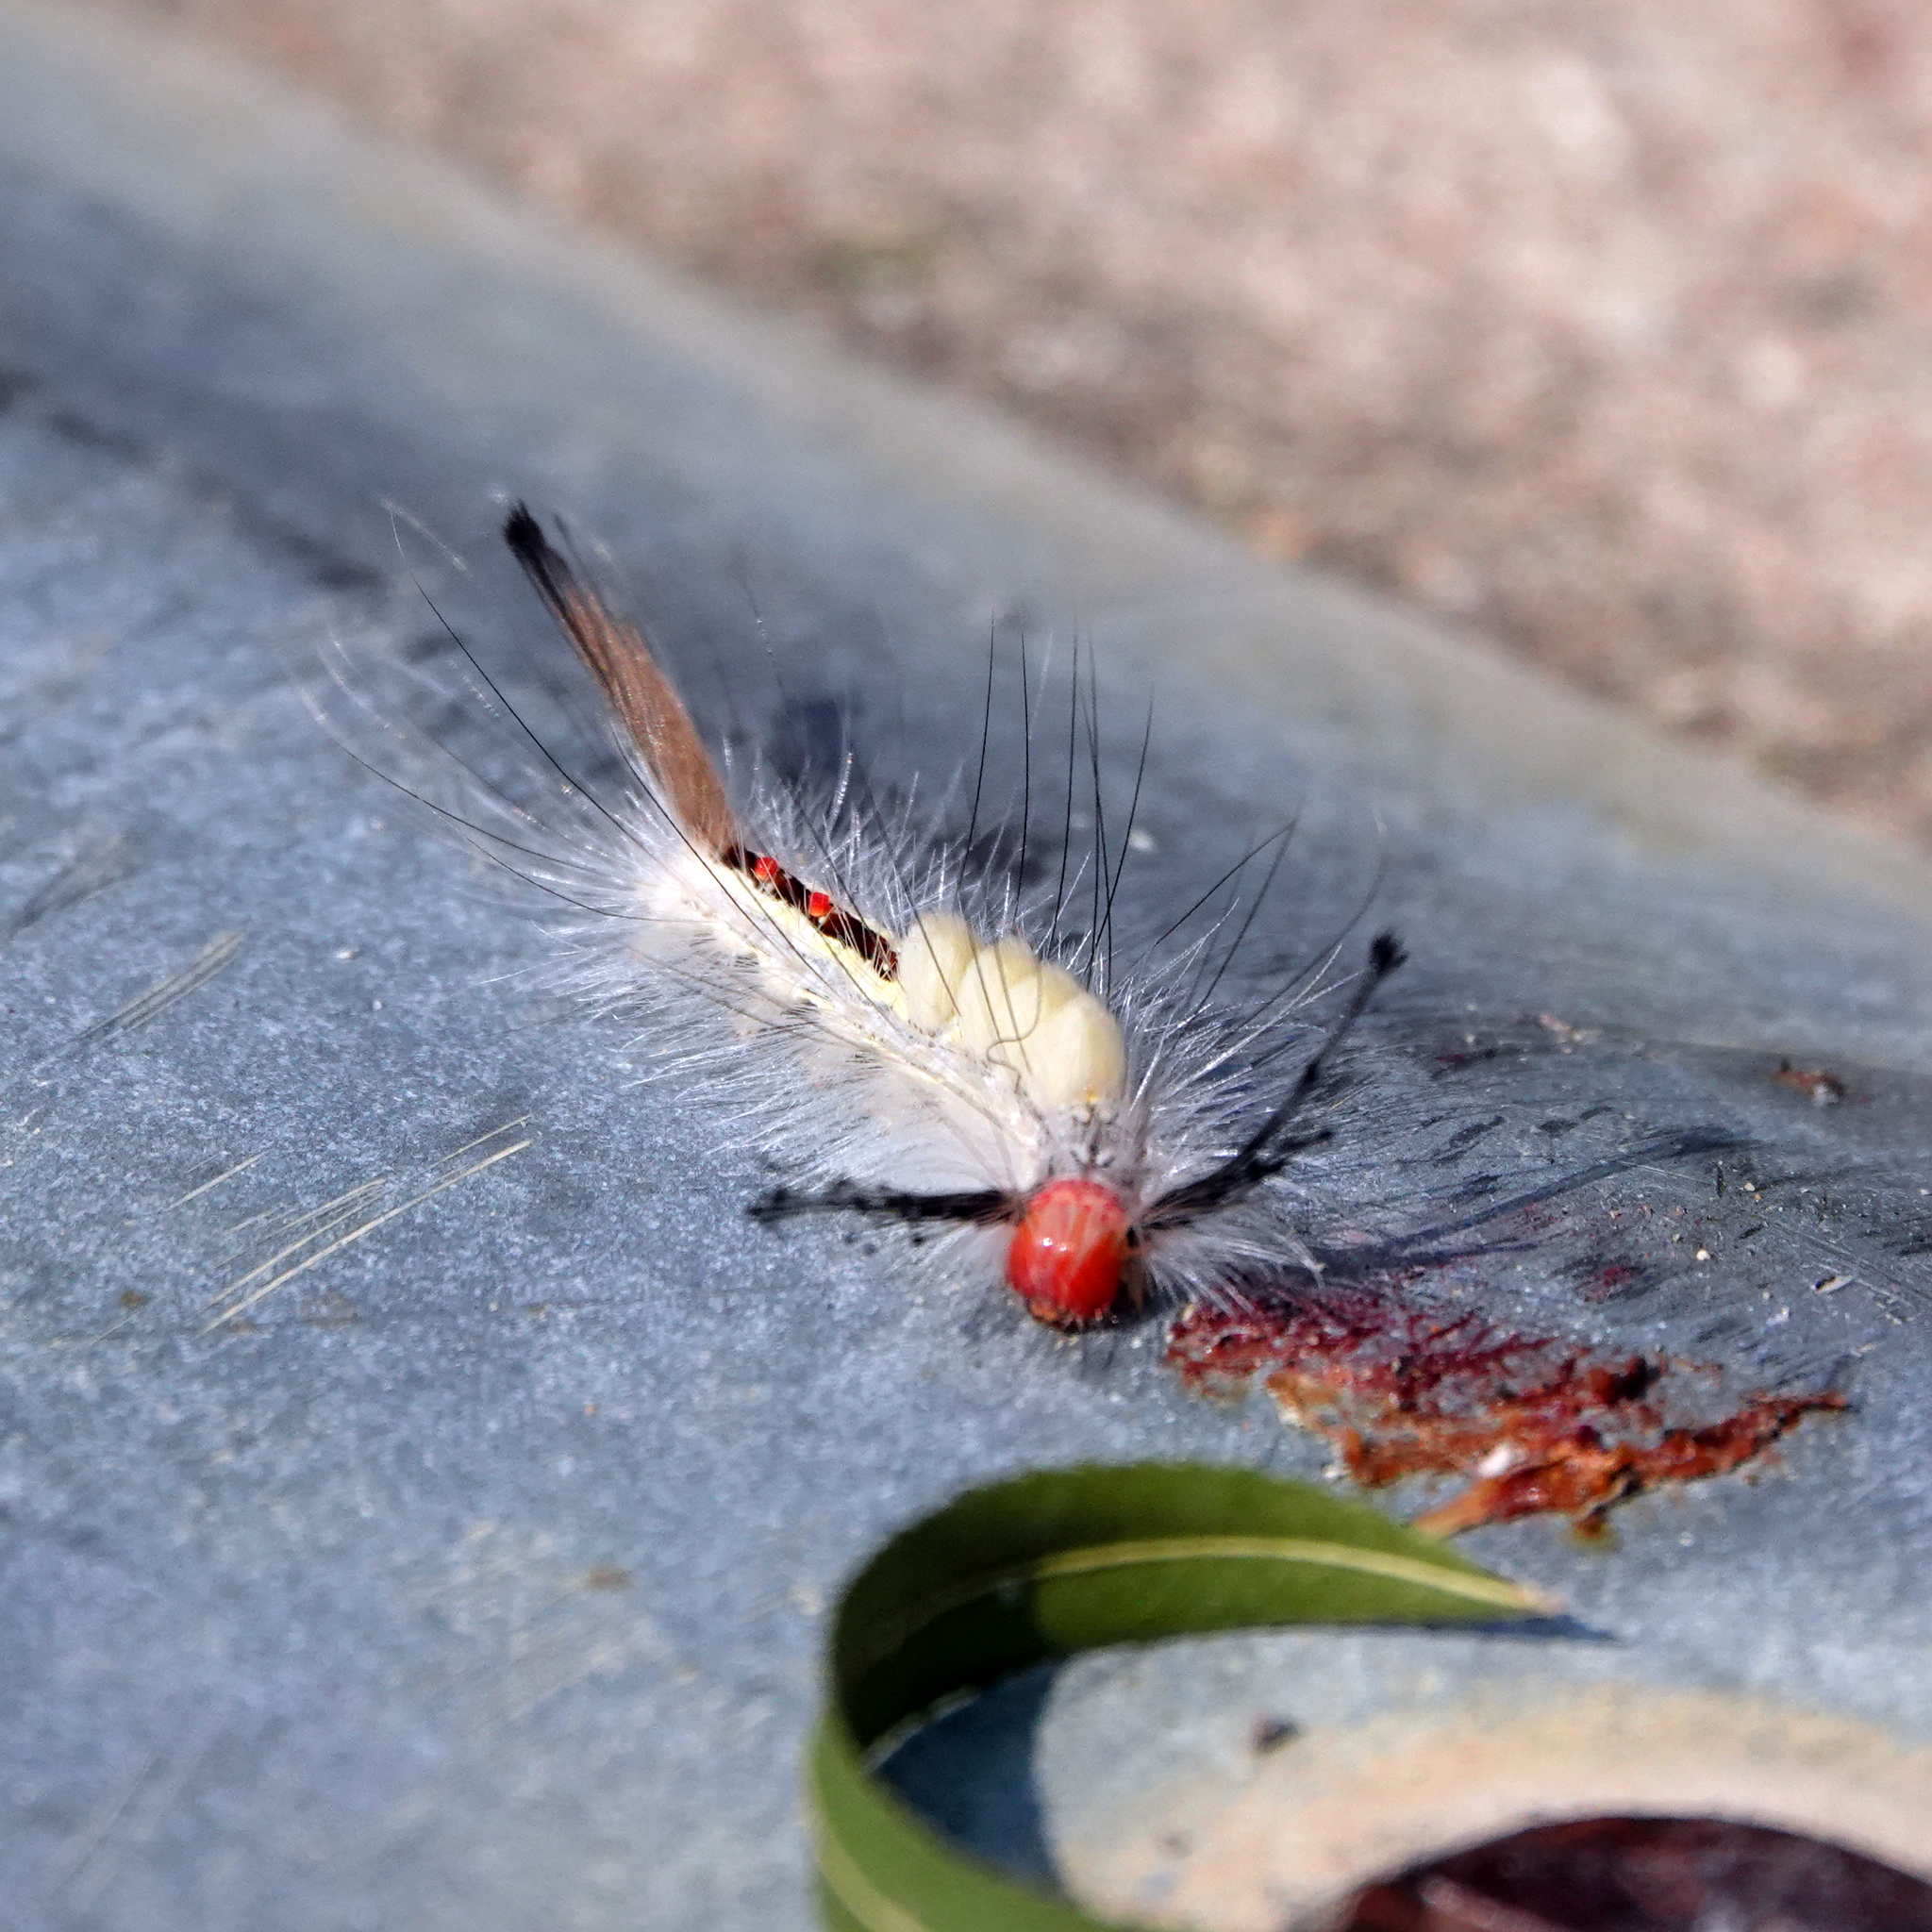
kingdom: Animalia
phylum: Arthropoda
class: Insecta
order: Lepidoptera
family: Erebidae
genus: Orgyia
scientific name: Orgyia leucostigma
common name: White-marked tussock moth
